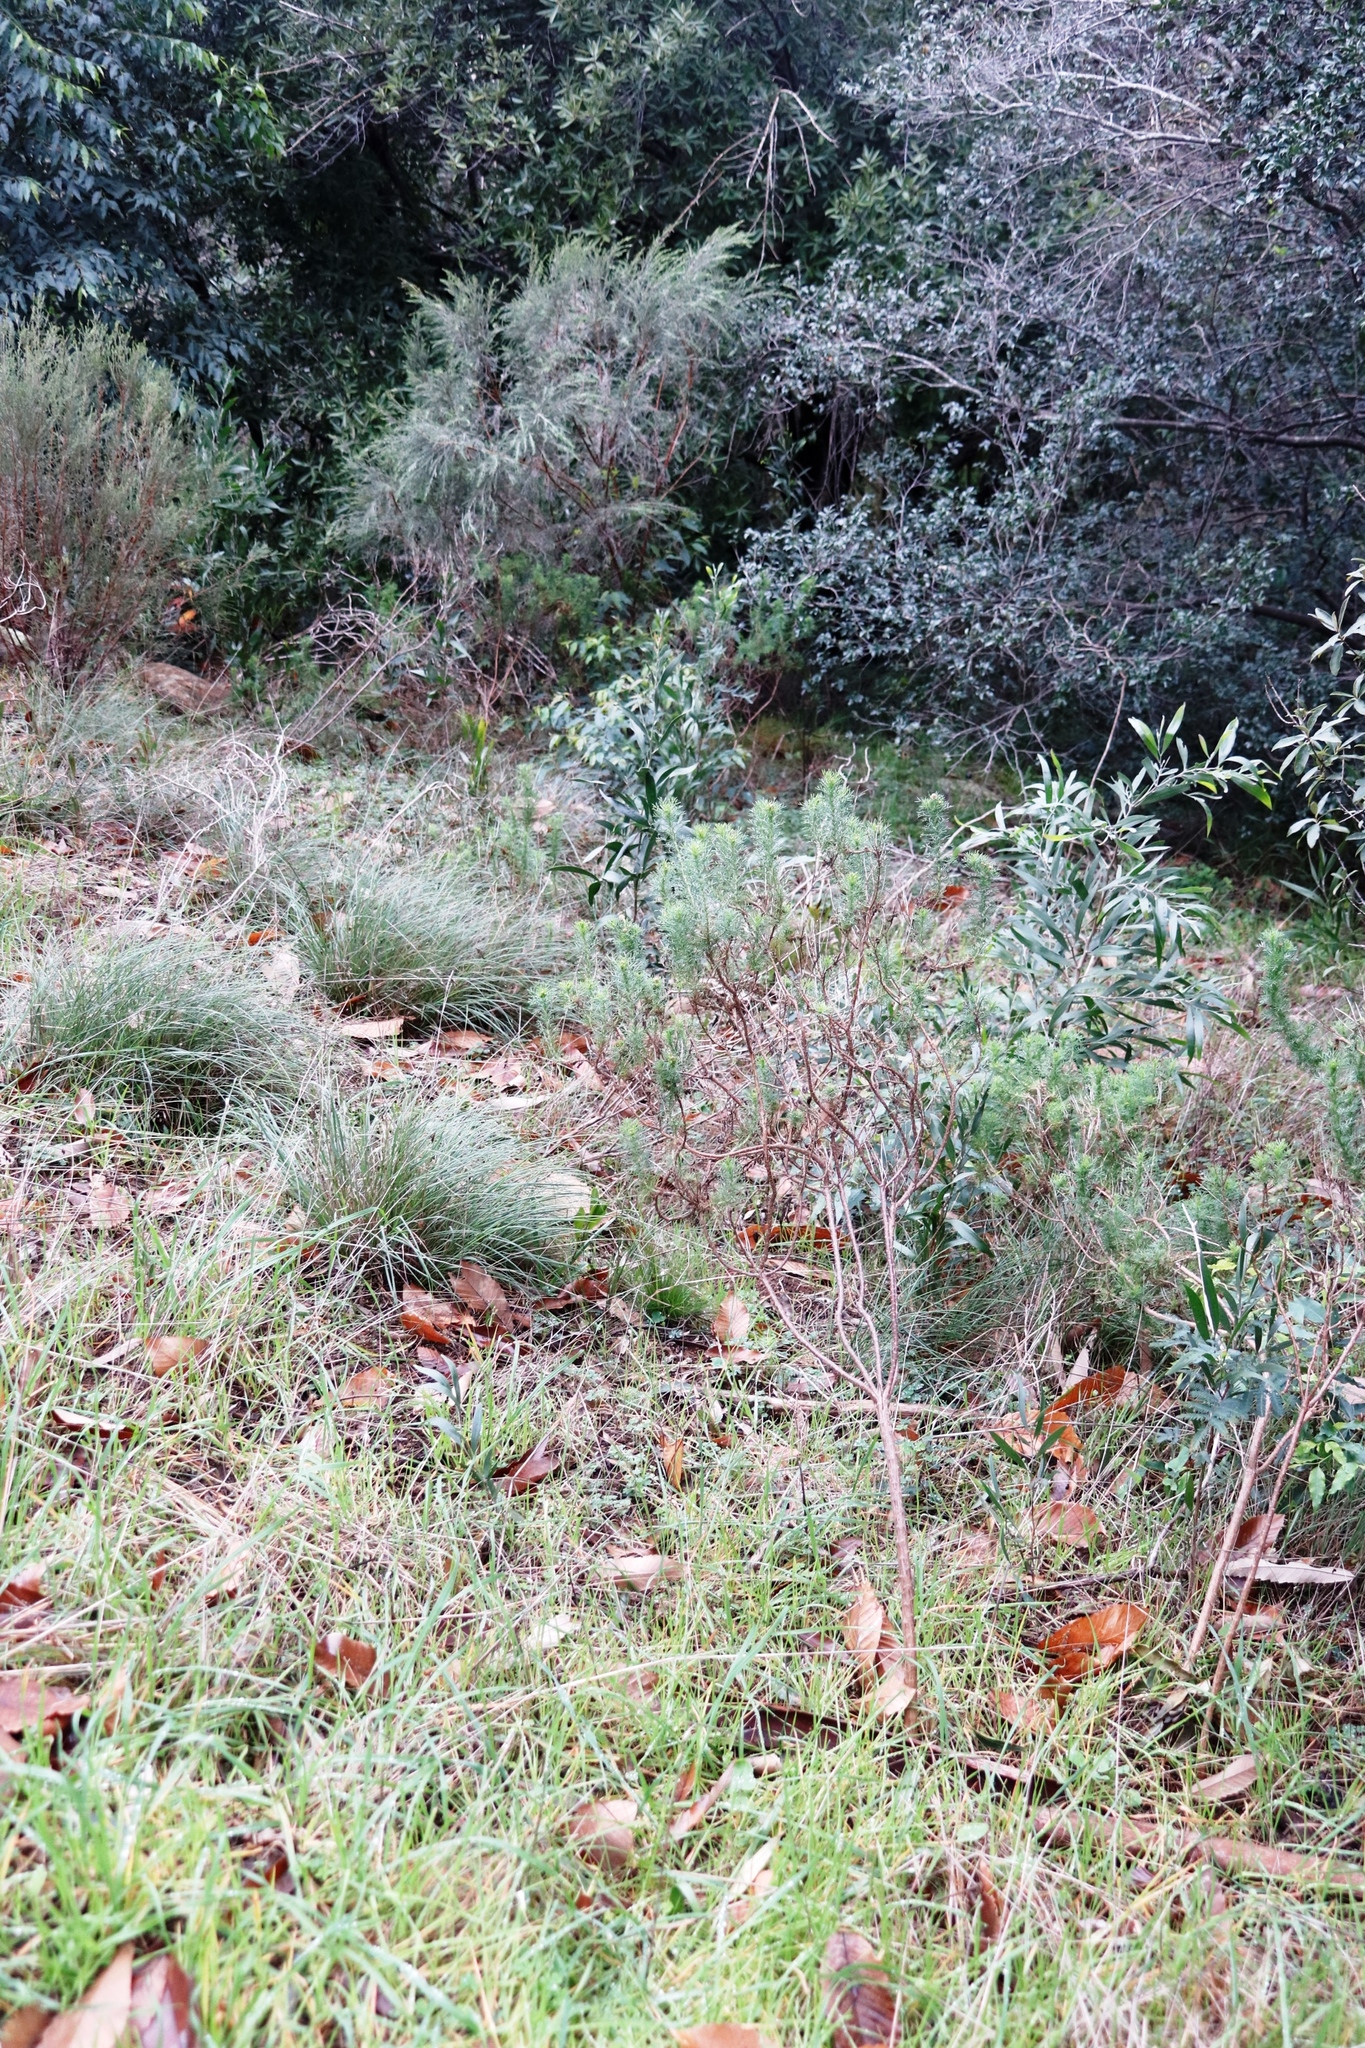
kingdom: Plantae
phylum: Tracheophyta
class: Magnoliopsida
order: Fabales
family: Fabaceae
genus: Acacia
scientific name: Acacia melanoxylon
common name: Blackwood
